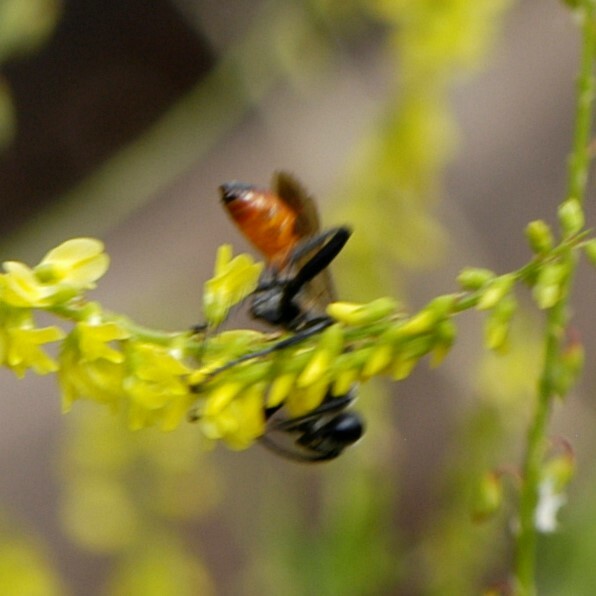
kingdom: Animalia
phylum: Arthropoda
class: Insecta
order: Hymenoptera
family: Sphecidae
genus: Prionyx
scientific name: Prionyx
